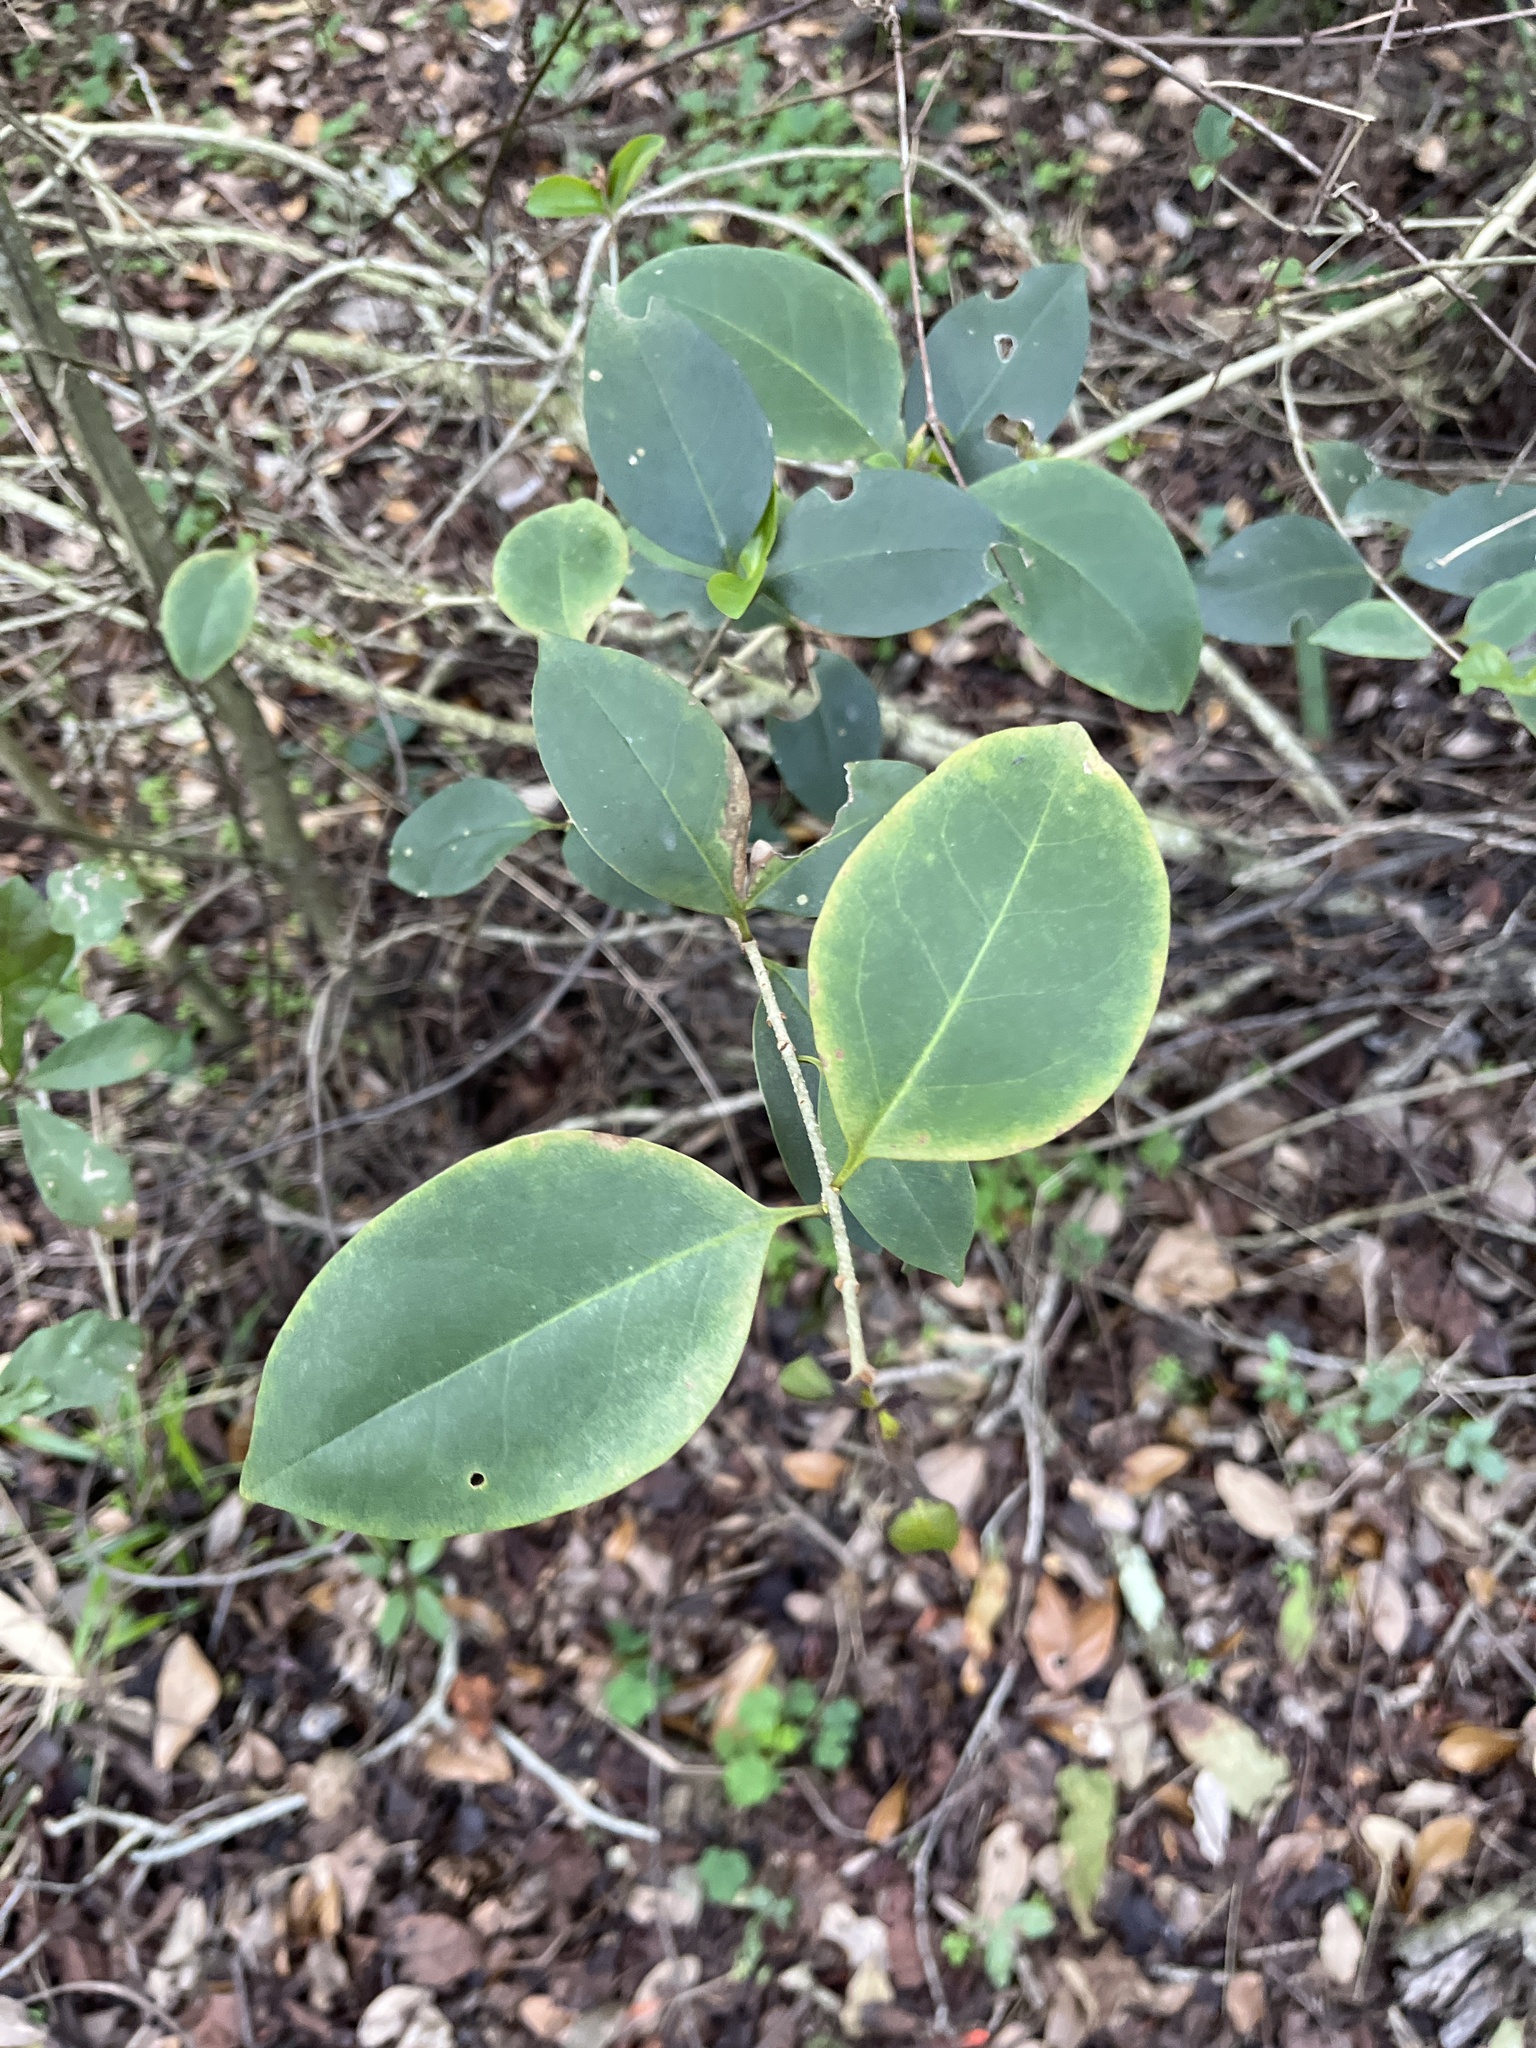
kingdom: Plantae
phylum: Tracheophyta
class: Magnoliopsida
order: Lamiales
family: Oleaceae
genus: Ligustrum
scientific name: Ligustrum lucidum
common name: Glossy privet
